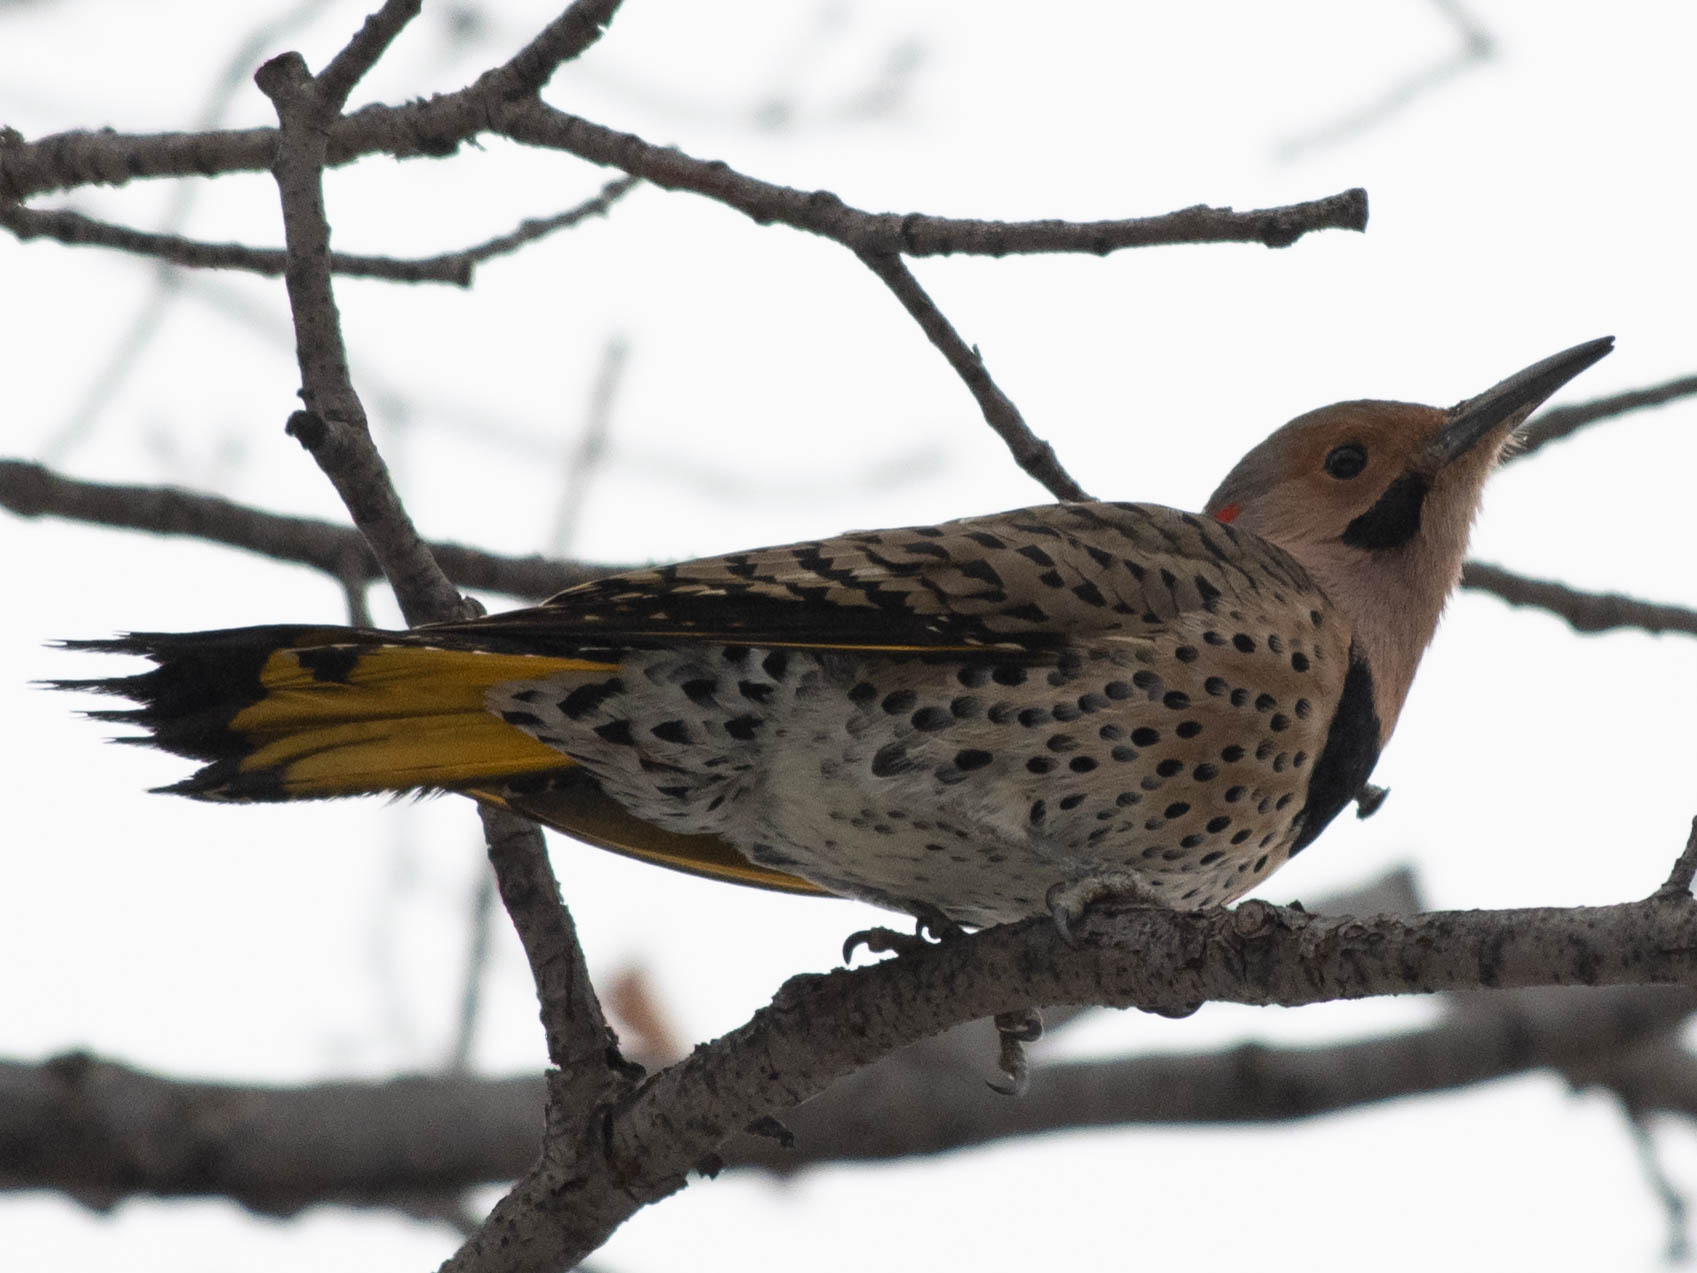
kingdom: Animalia
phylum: Chordata
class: Aves
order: Piciformes
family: Picidae
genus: Colaptes
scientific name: Colaptes auratus
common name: Northern flicker
